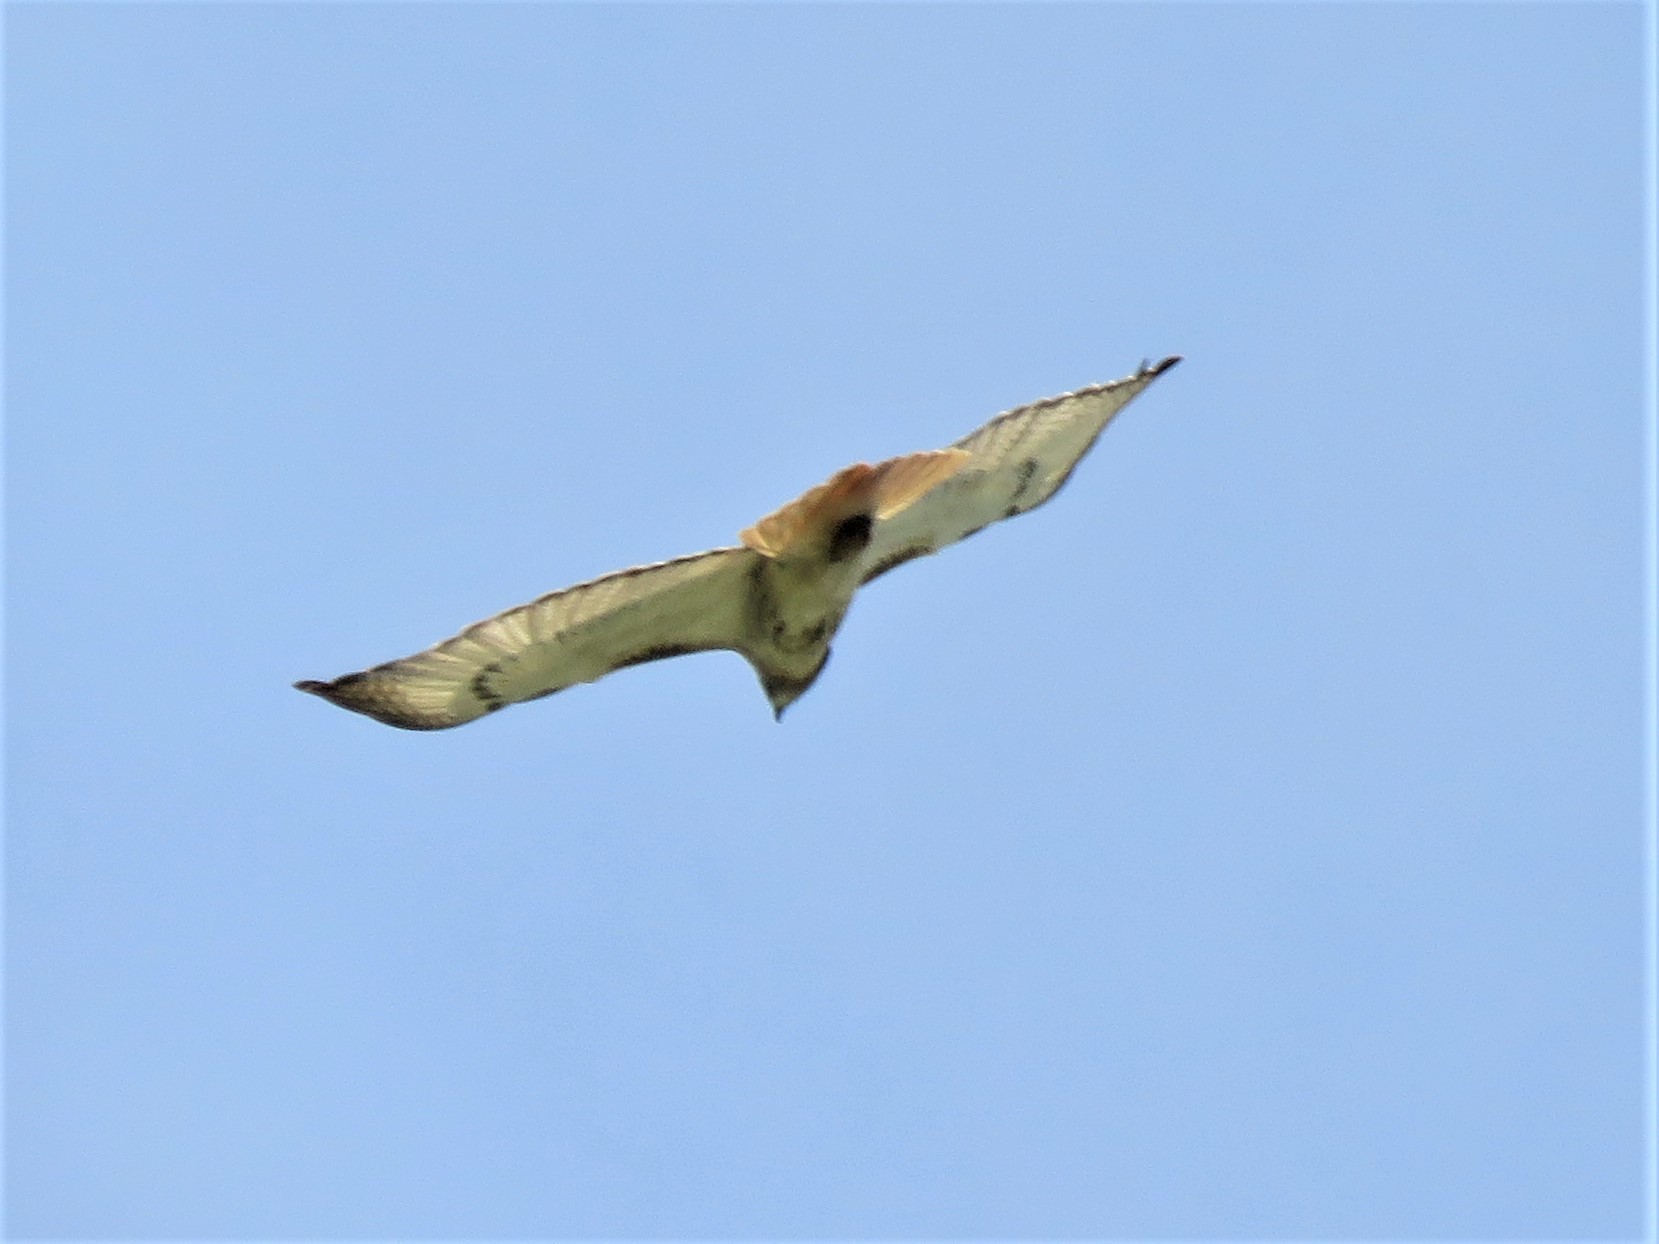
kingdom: Animalia
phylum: Chordata
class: Aves
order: Accipitriformes
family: Accipitridae
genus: Buteo
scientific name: Buteo jamaicensis
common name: Red-tailed hawk
